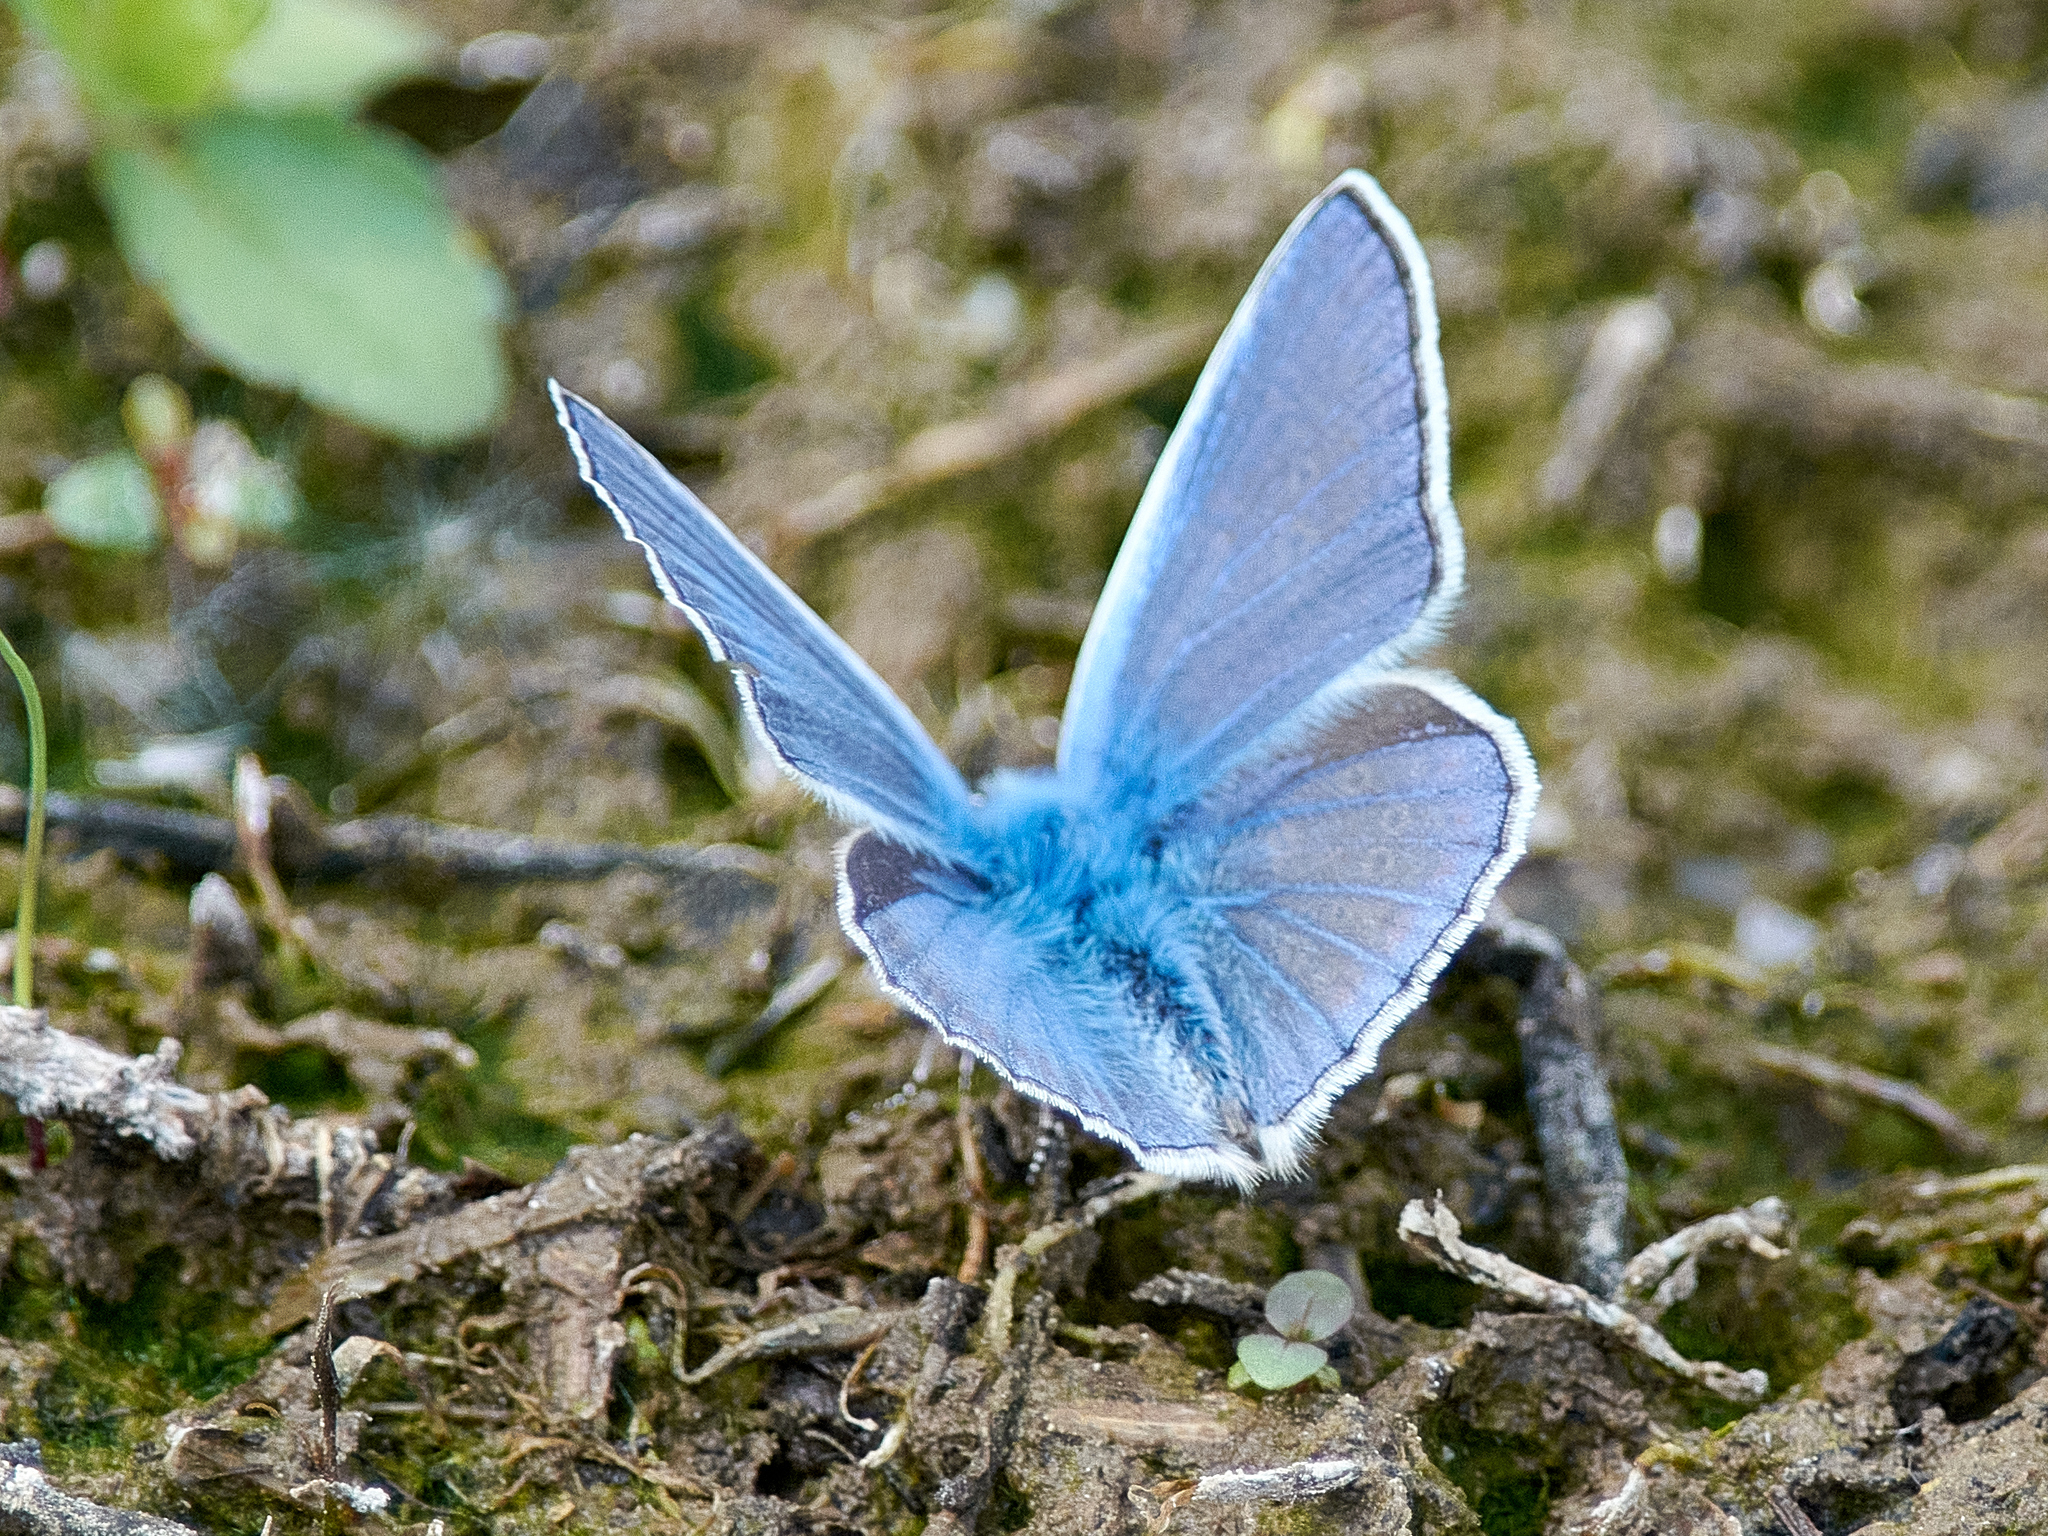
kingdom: Animalia
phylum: Arthropoda
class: Insecta
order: Lepidoptera
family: Lycaenidae
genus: Polyommatus
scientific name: Polyommatus icarus
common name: Common blue
